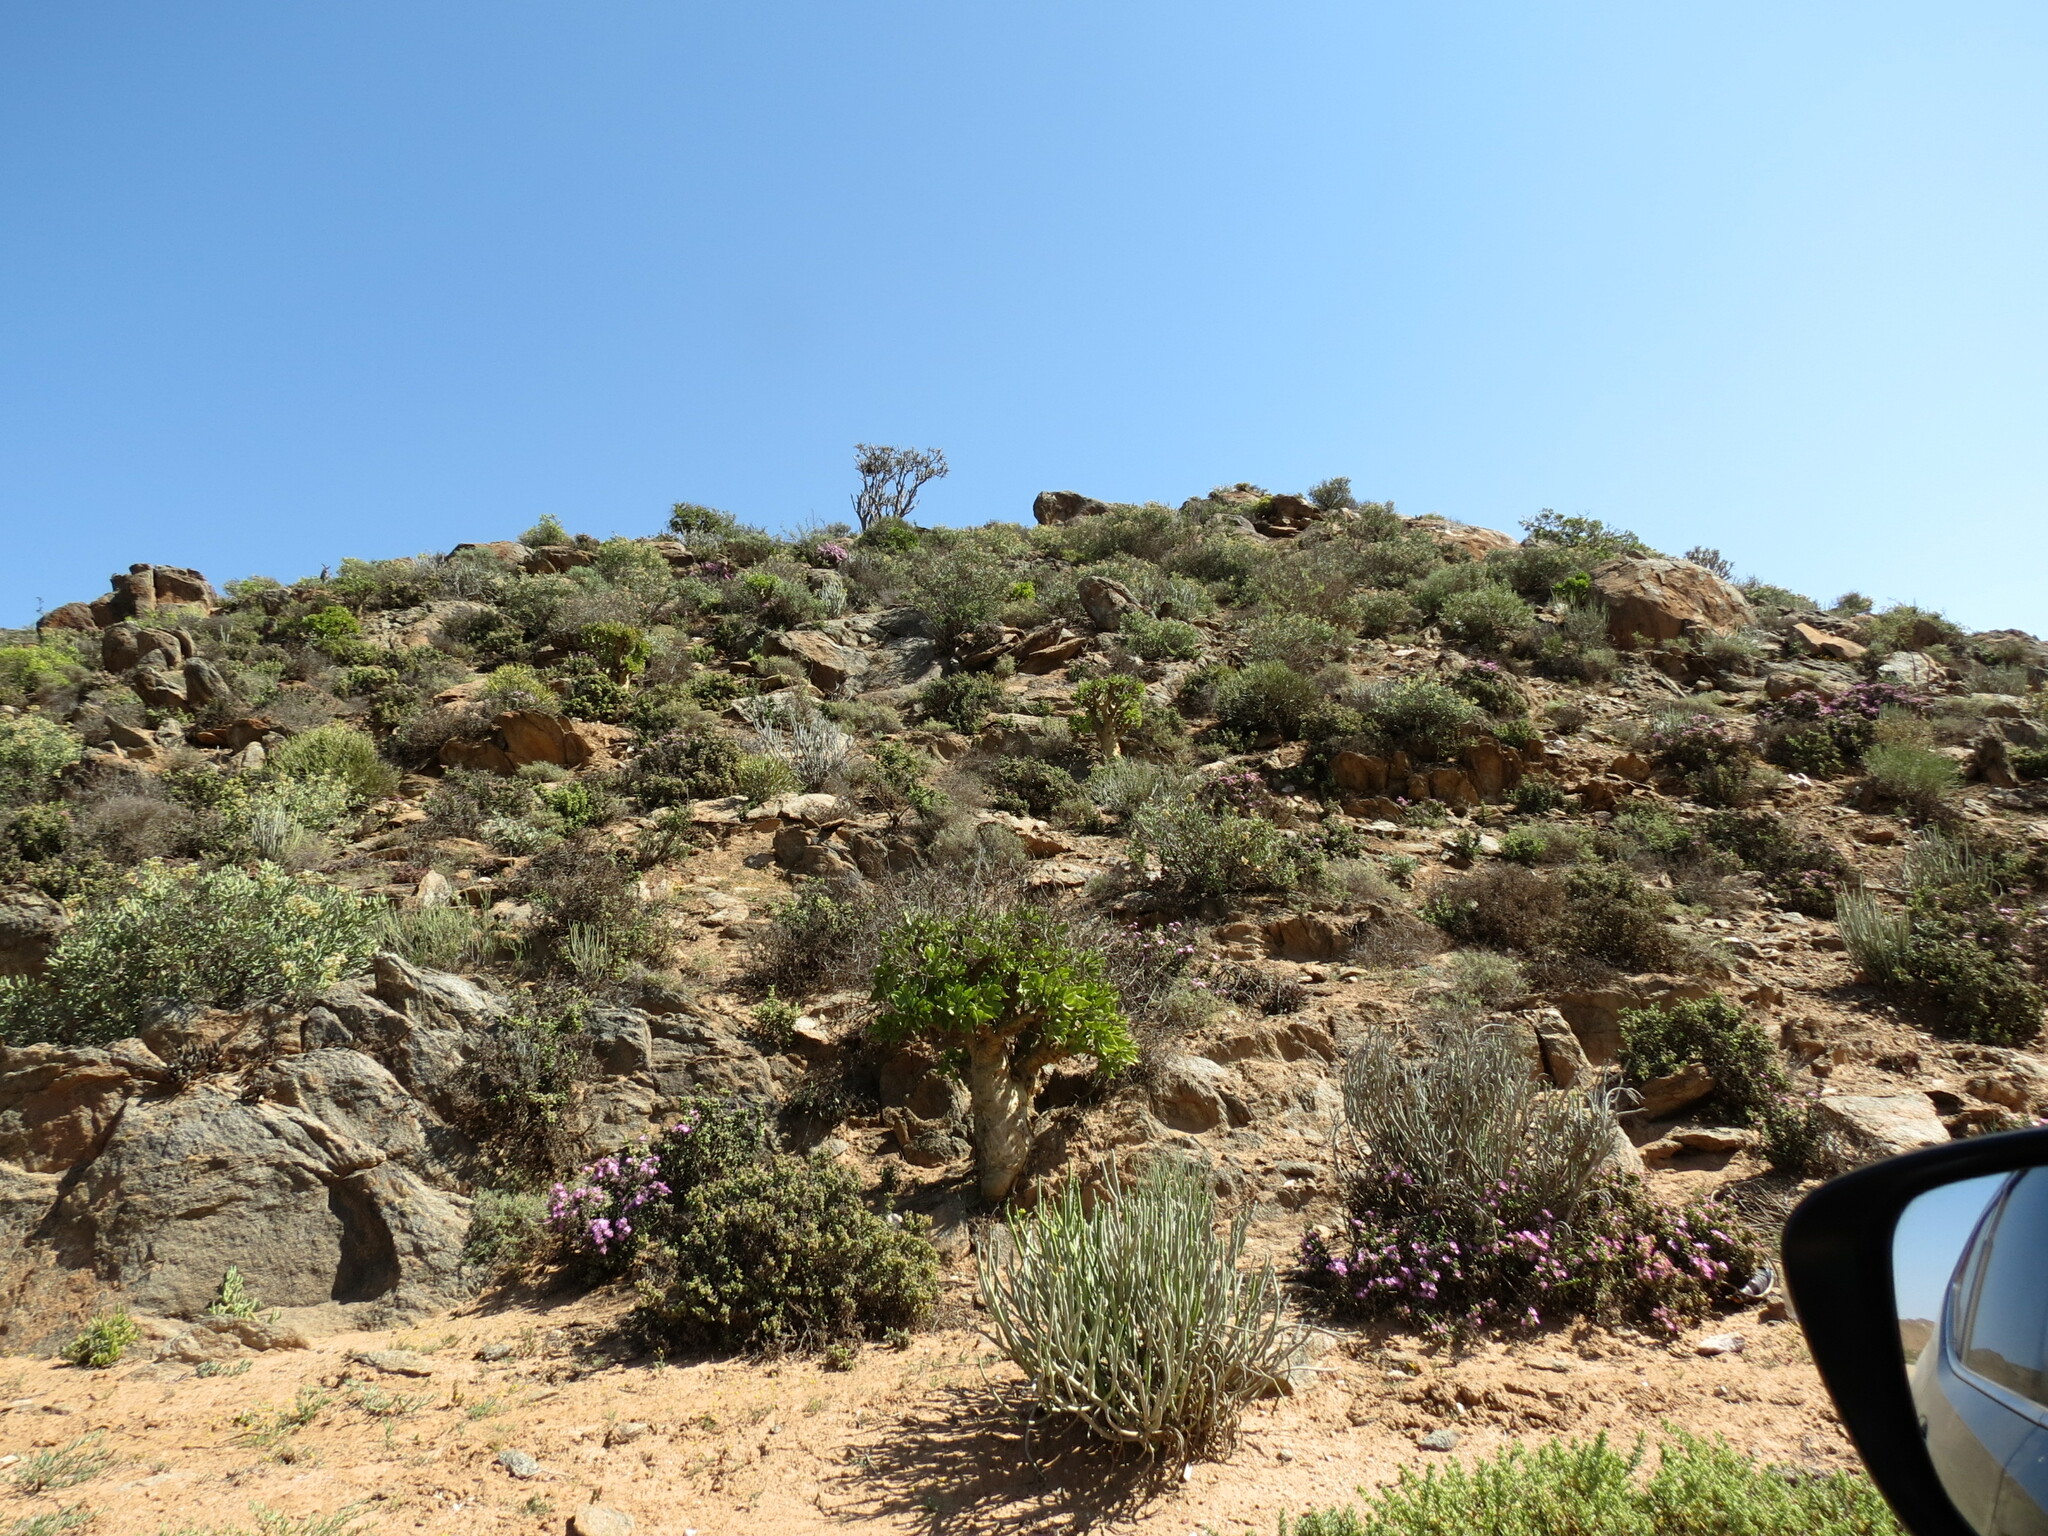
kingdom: Plantae
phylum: Tracheophyta
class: Magnoliopsida
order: Saxifragales
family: Crassulaceae
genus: Tylecodon
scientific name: Tylecodon paniculatus
